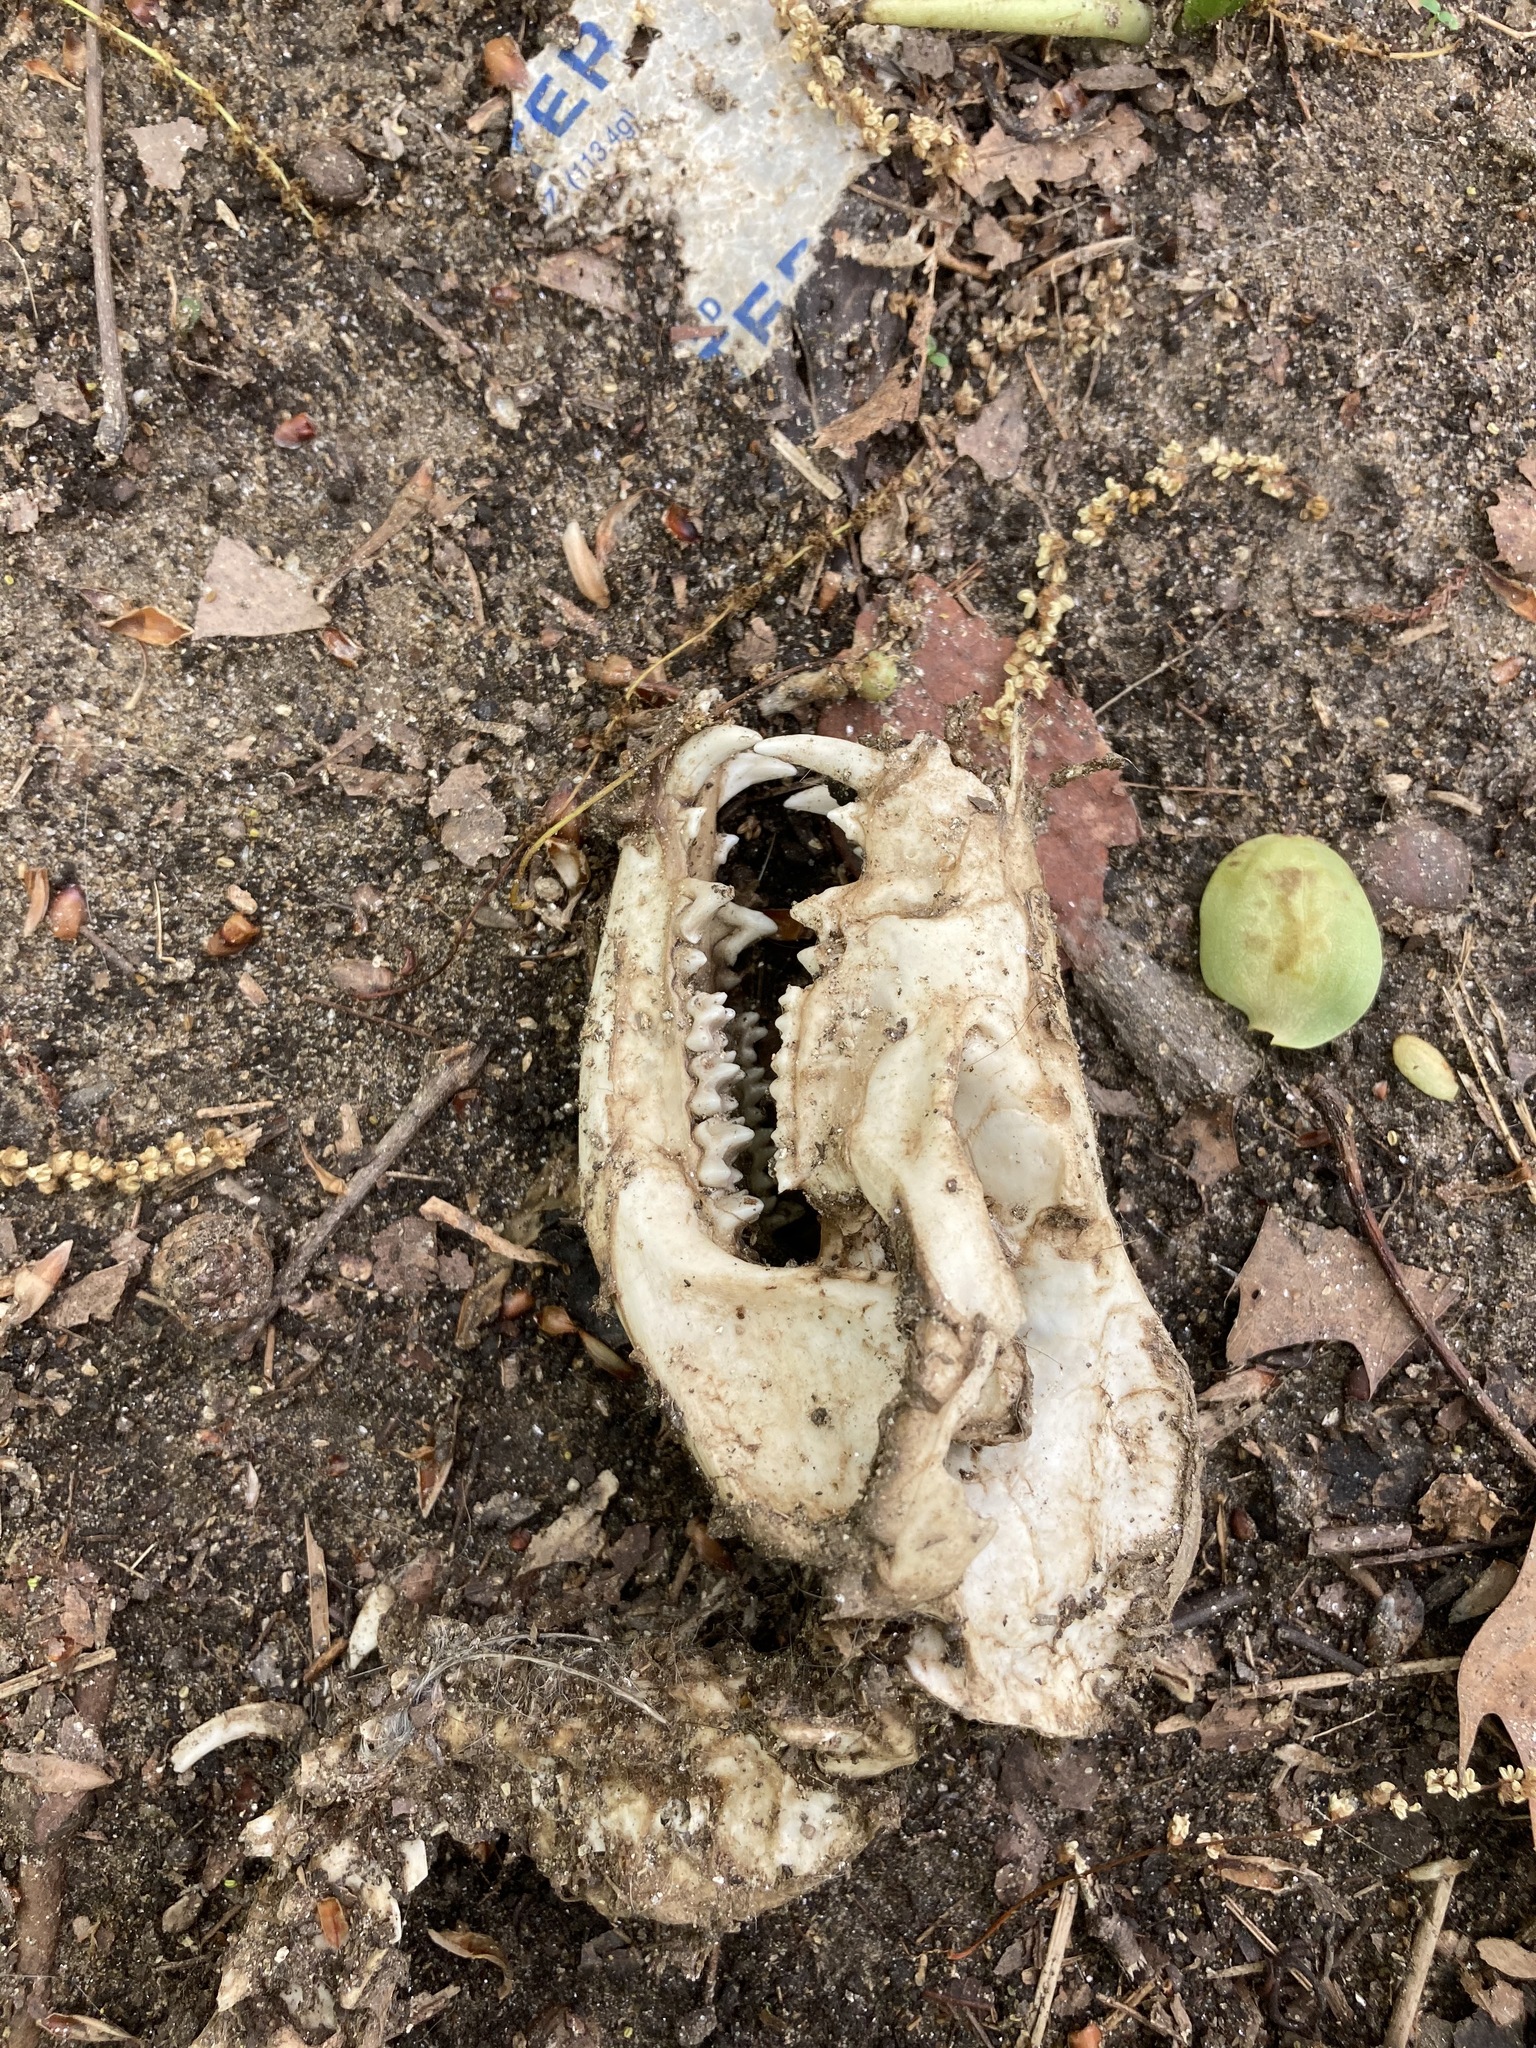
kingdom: Animalia
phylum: Chordata
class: Mammalia
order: Didelphimorphia
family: Didelphidae
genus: Didelphis
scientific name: Didelphis virginiana
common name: Virginia opossum
